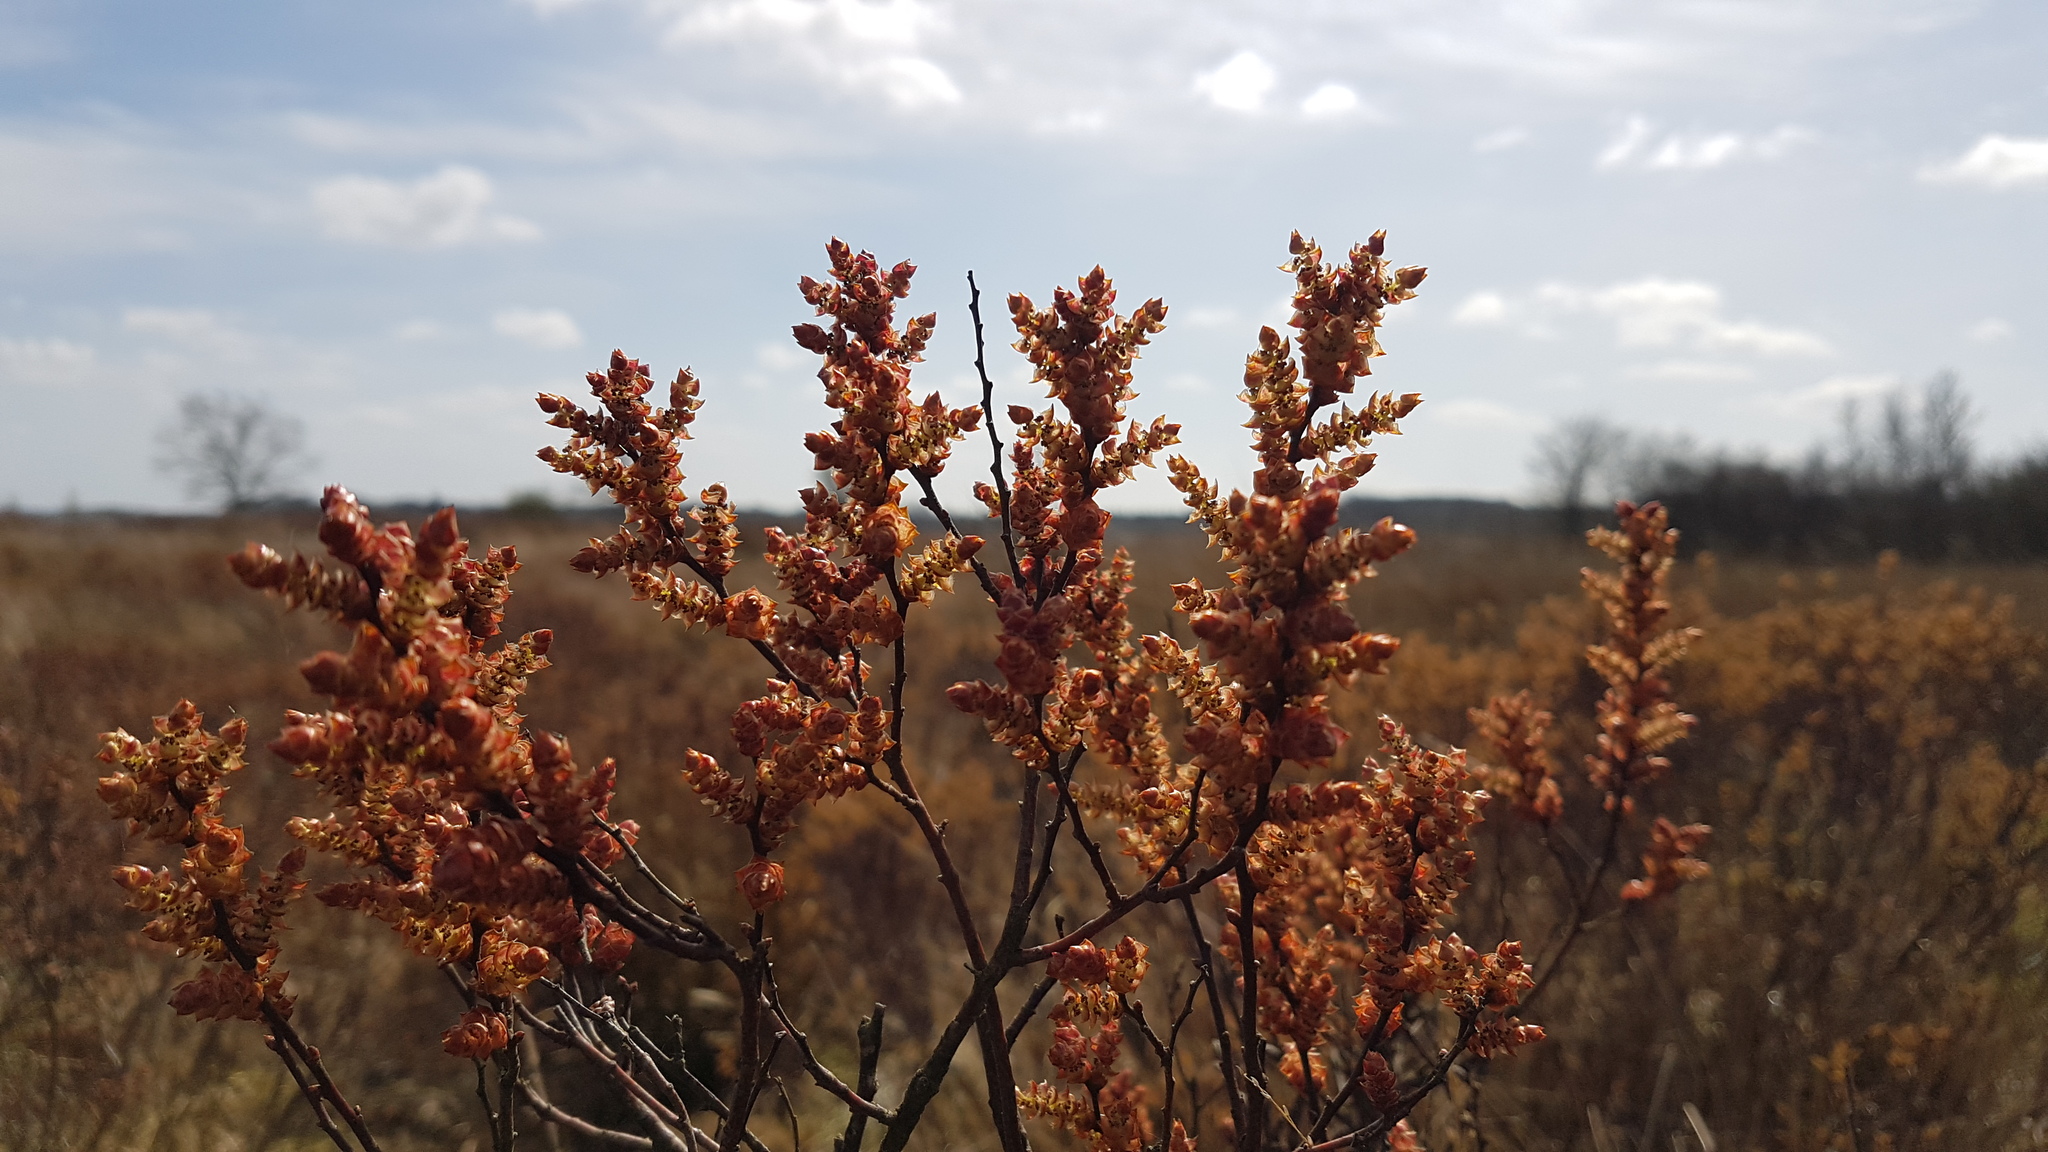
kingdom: Plantae
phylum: Tracheophyta
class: Magnoliopsida
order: Fagales
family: Myricaceae
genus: Myrica
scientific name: Myrica gale
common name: Sweet gale
